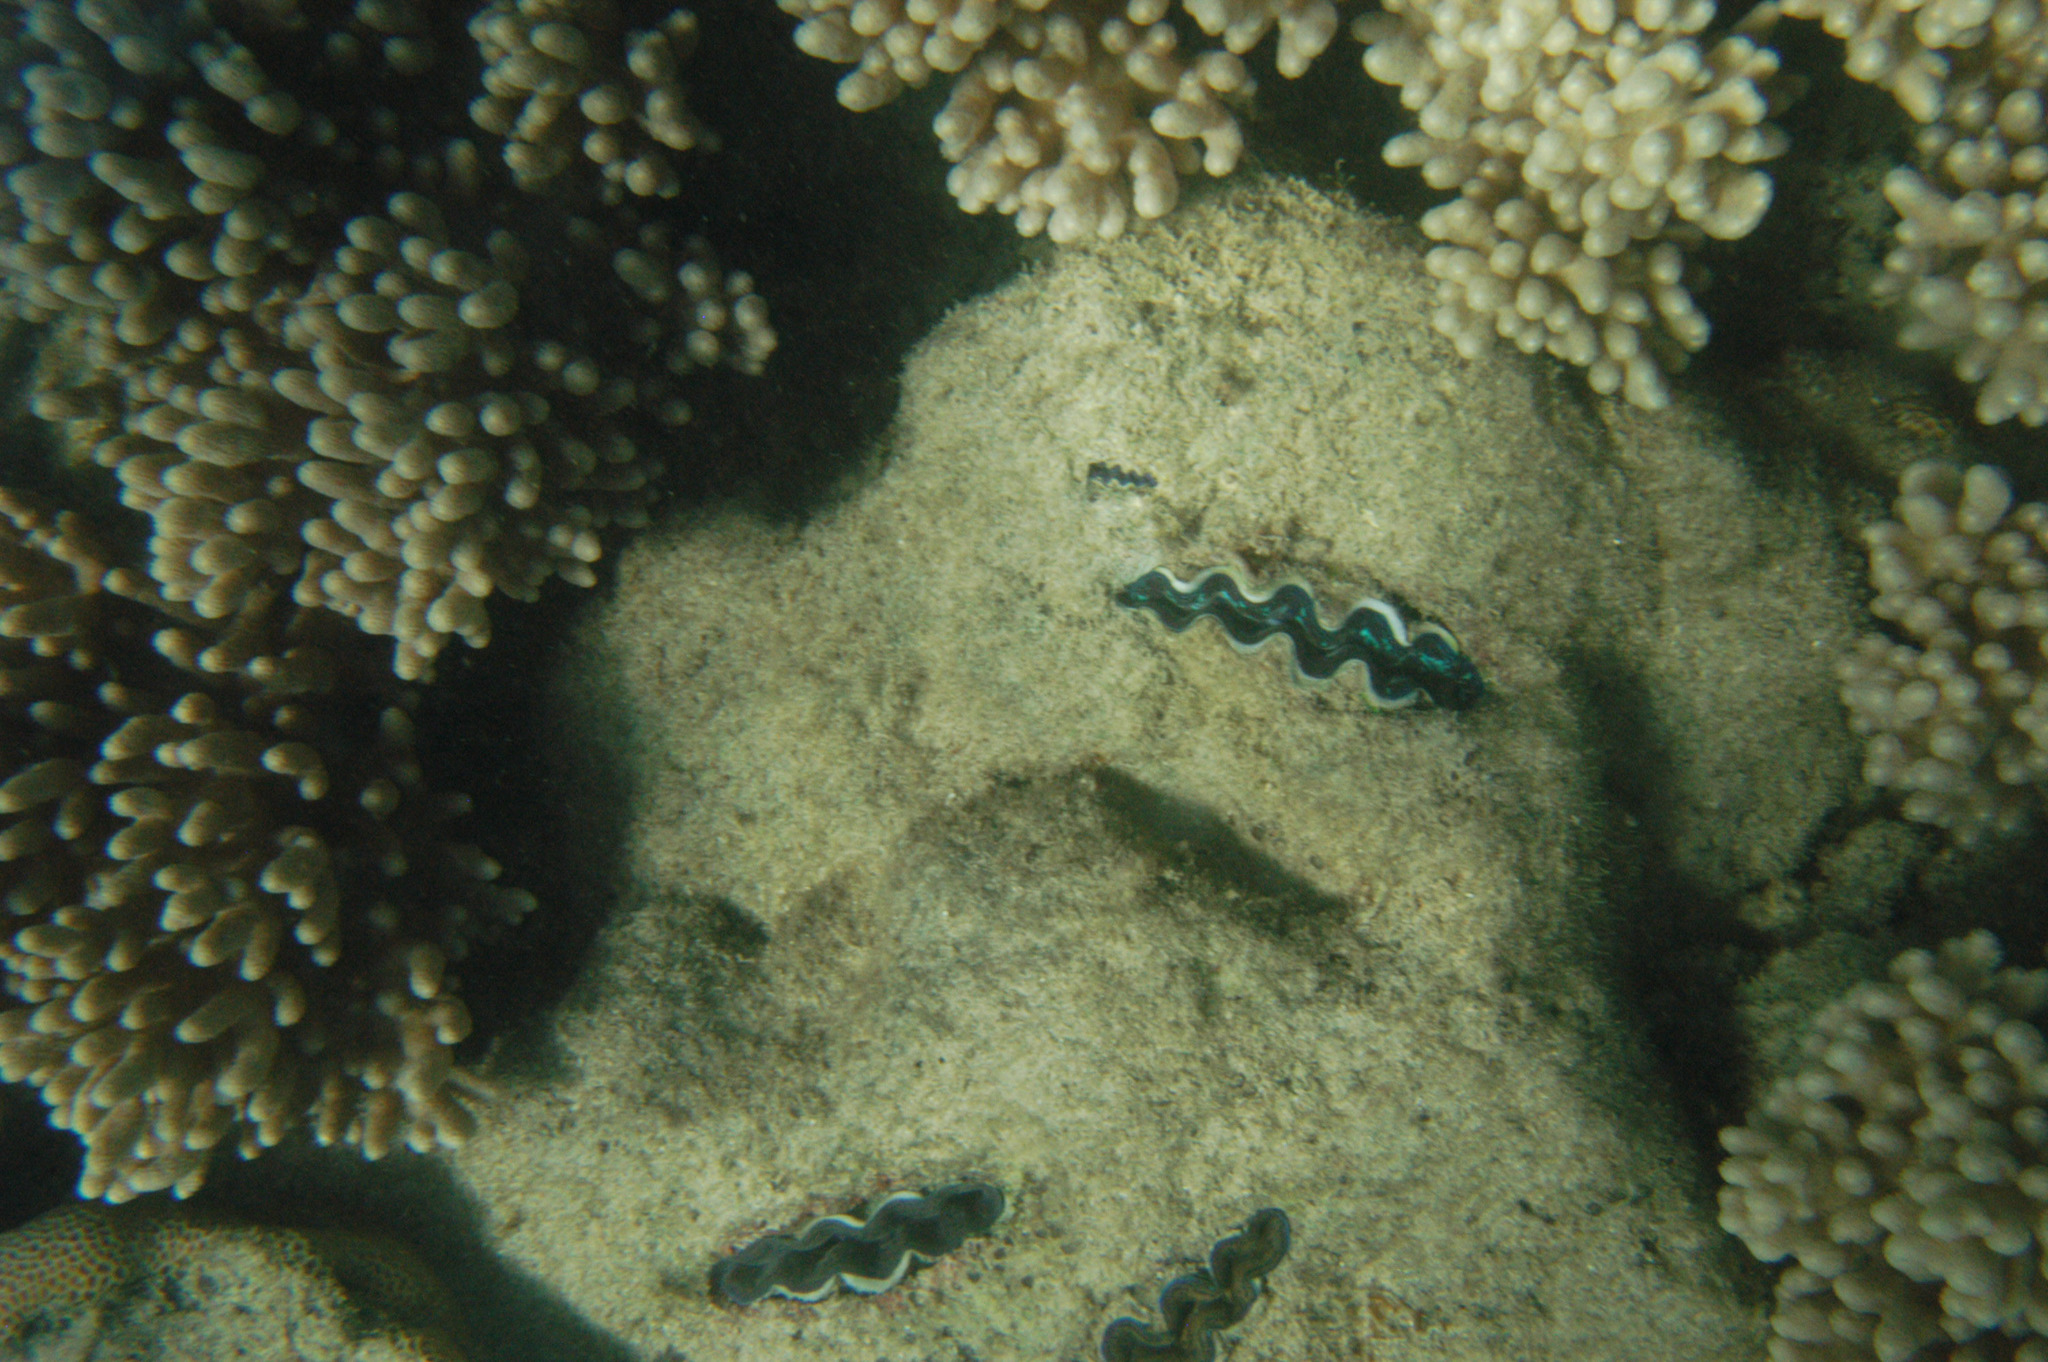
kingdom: Animalia
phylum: Mollusca
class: Bivalvia
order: Cardiida
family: Cardiidae
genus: Tridacna
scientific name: Tridacna crocea
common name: Boring clam
